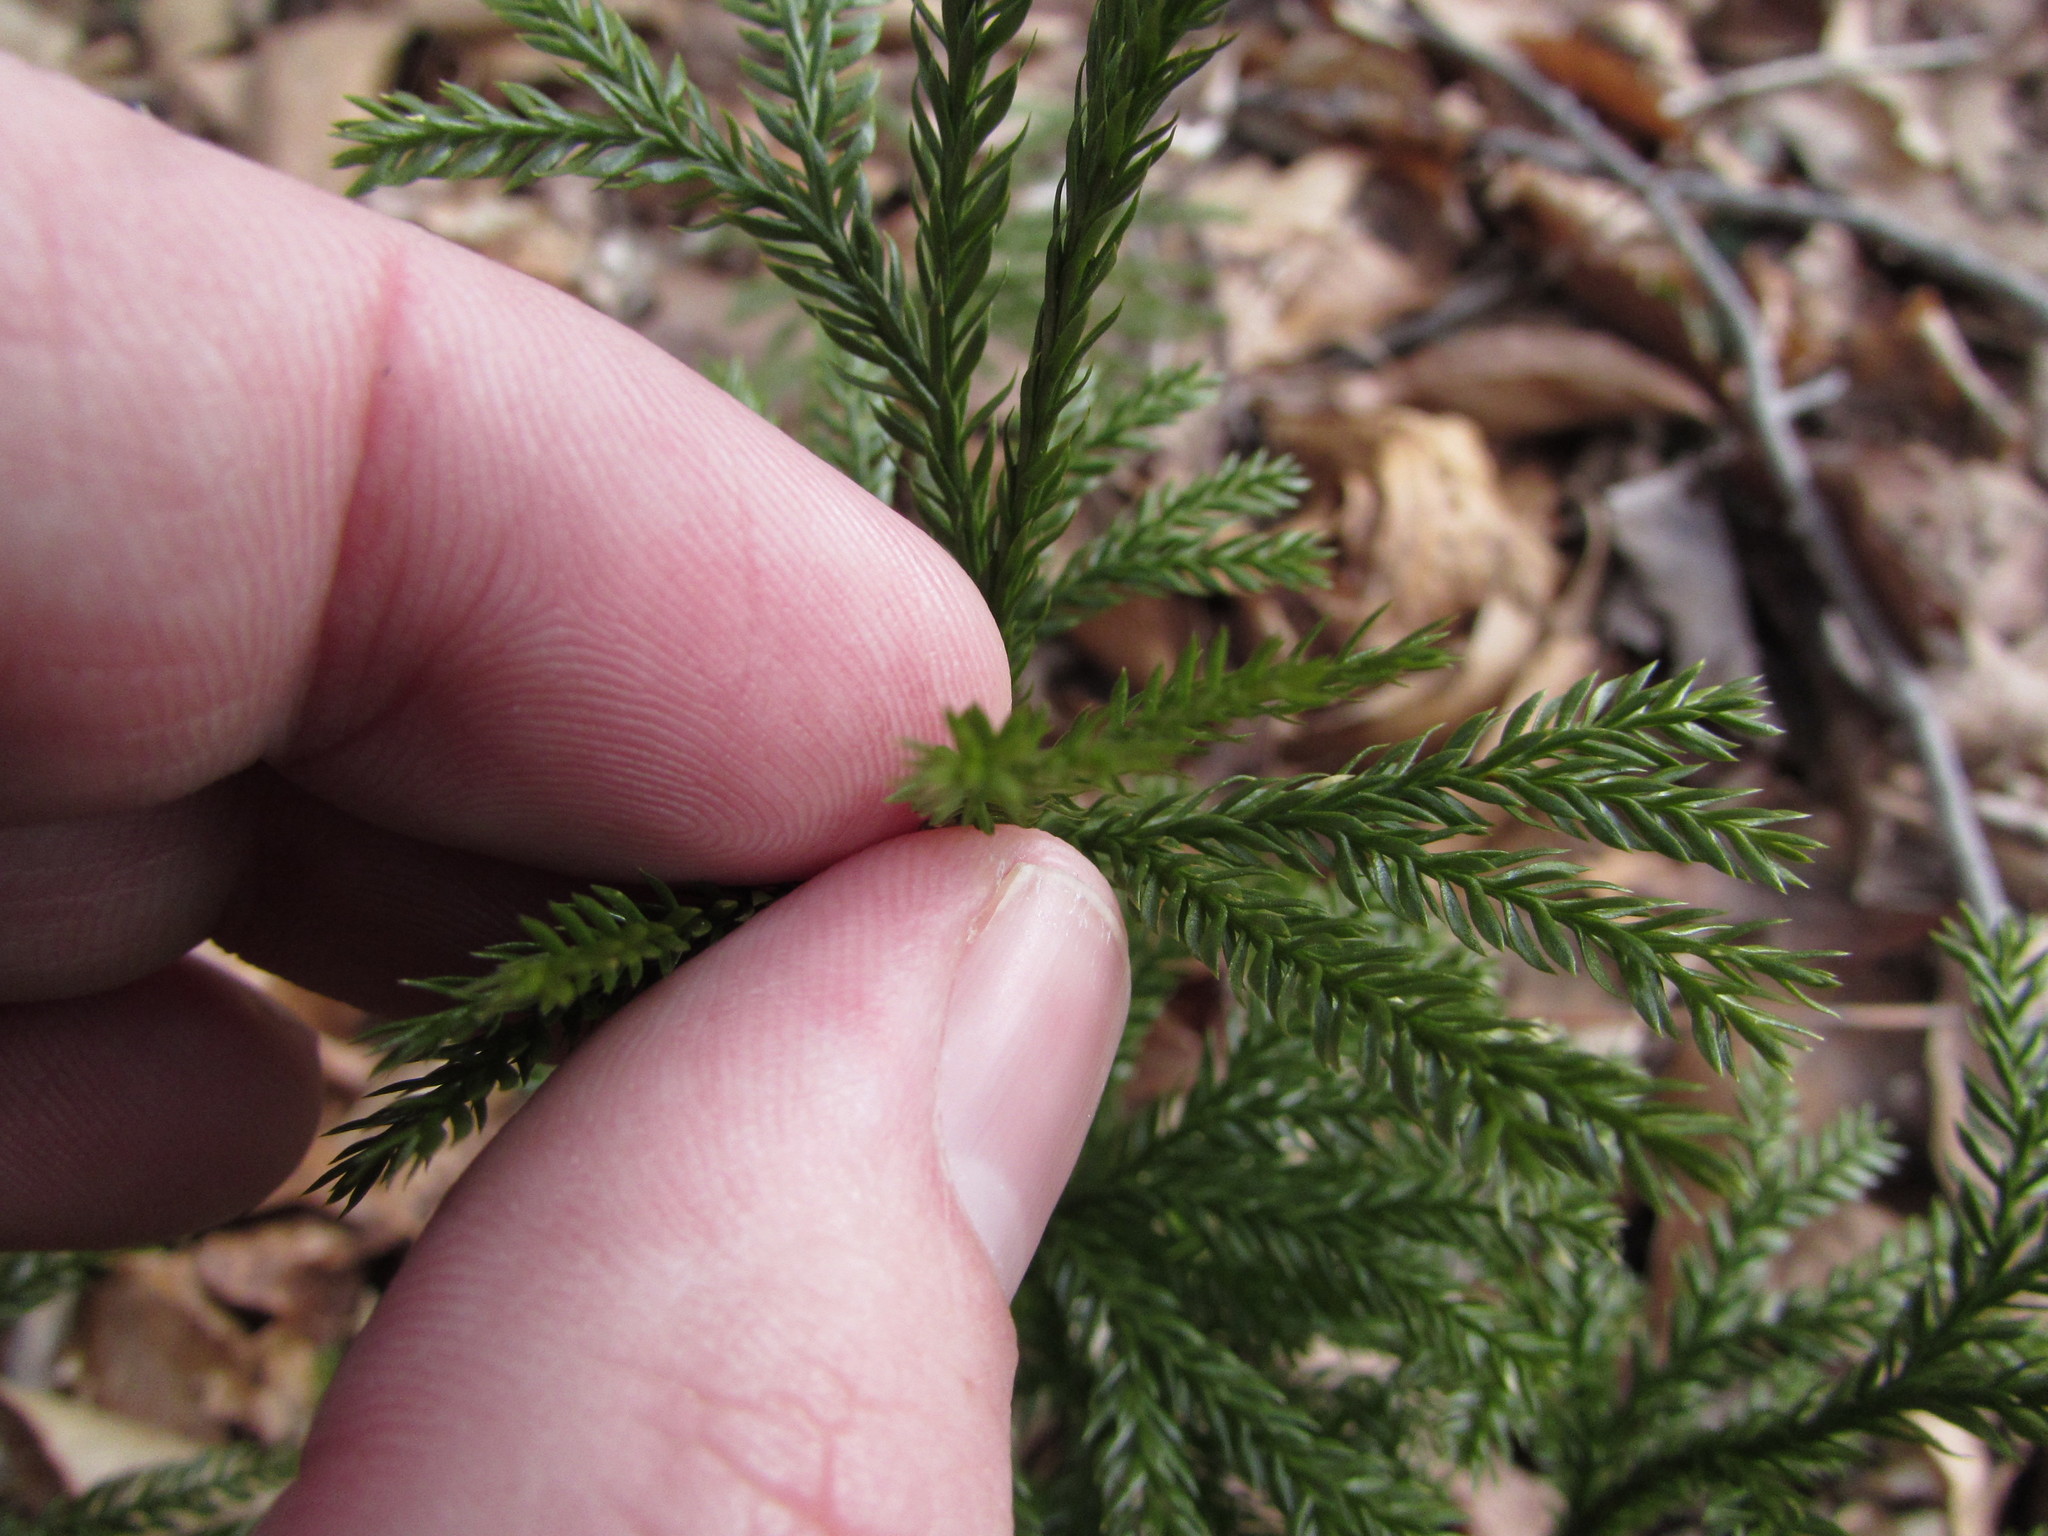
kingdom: Plantae
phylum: Tracheophyta
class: Lycopodiopsida
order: Lycopodiales
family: Lycopodiaceae
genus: Dendrolycopodium
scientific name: Dendrolycopodium obscurum
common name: Common ground-pine
